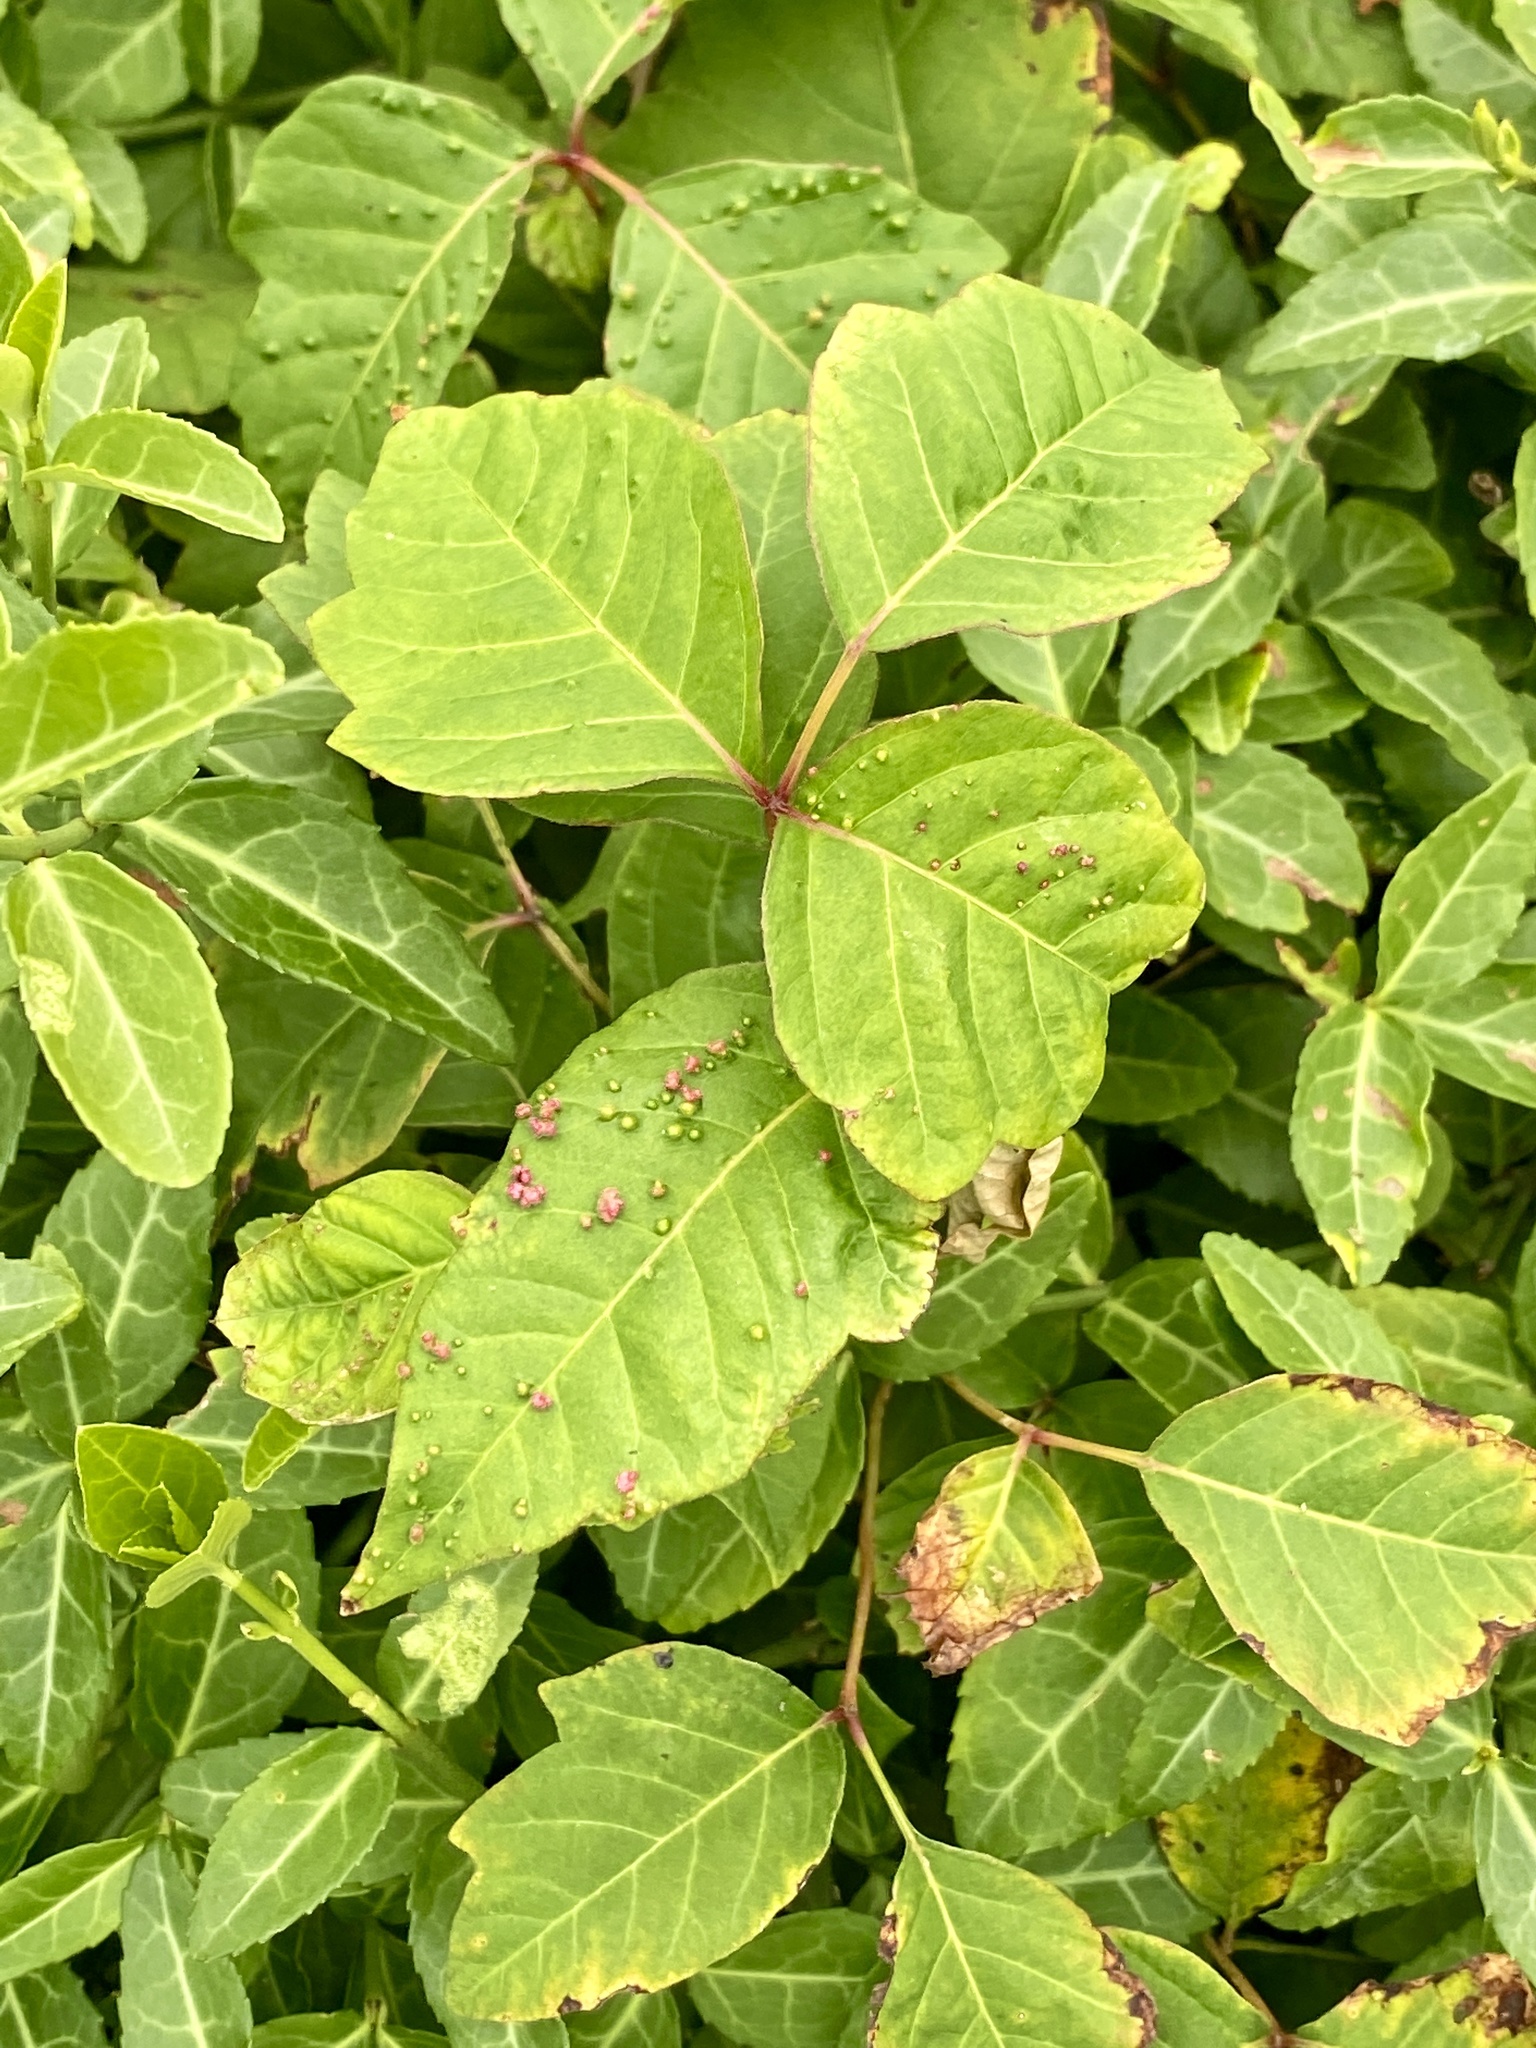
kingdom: Plantae
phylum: Tracheophyta
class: Magnoliopsida
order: Sapindales
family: Anacardiaceae
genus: Toxicodendron
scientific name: Toxicodendron radicans
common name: Poison ivy
